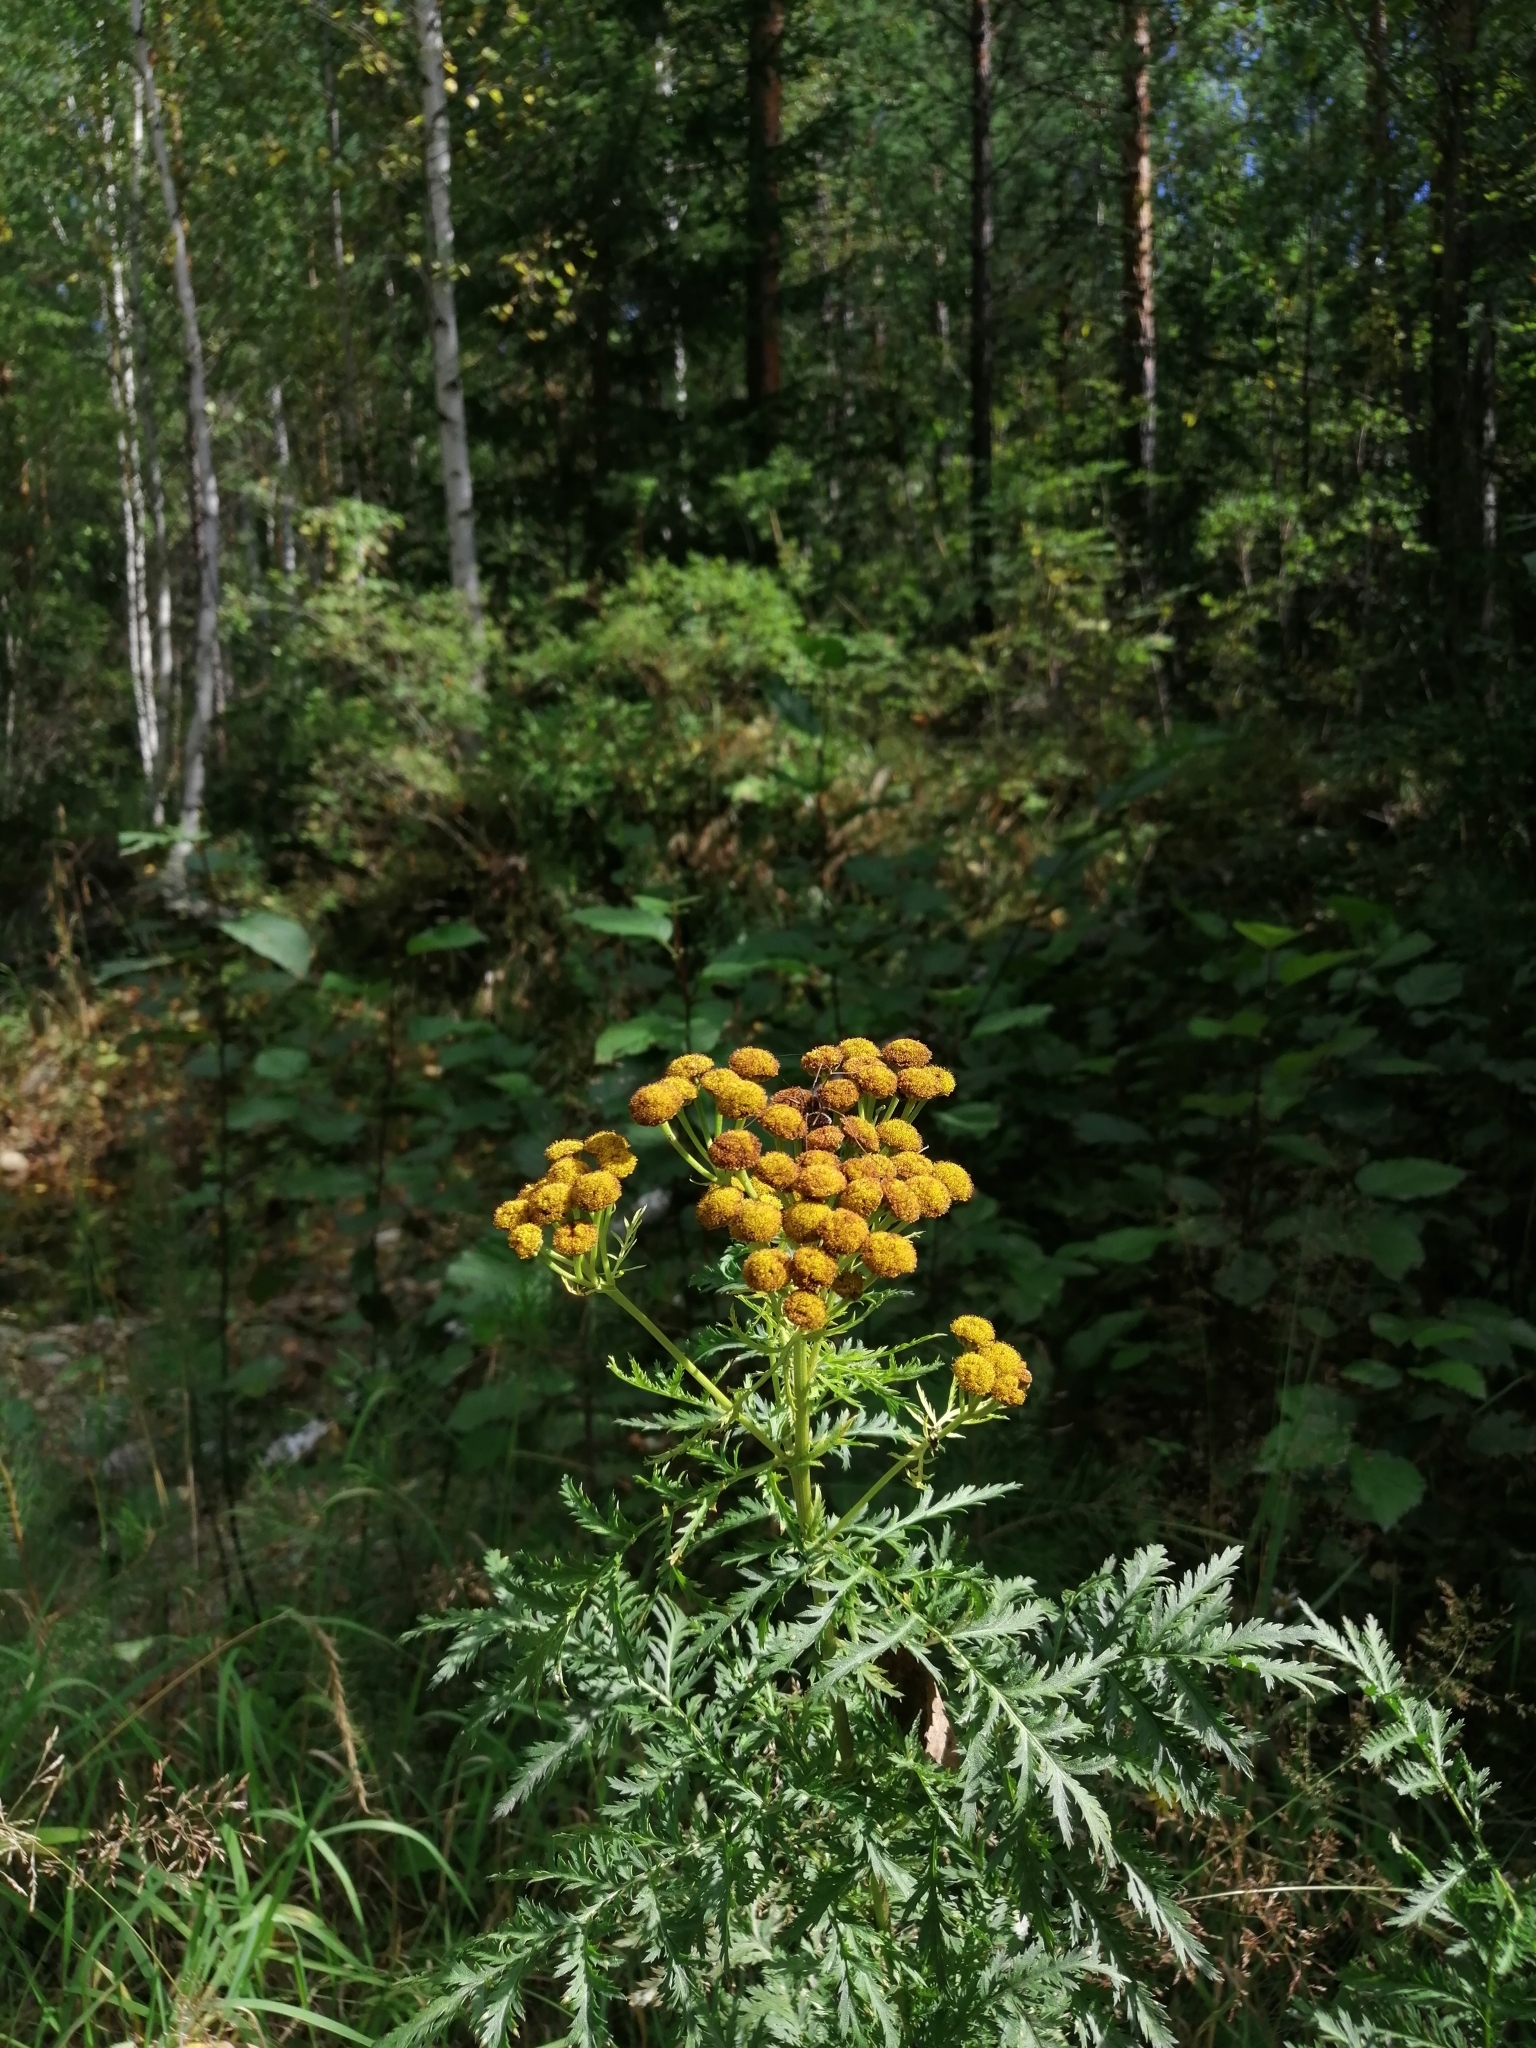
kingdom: Plantae
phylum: Tracheophyta
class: Magnoliopsida
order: Asterales
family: Asteraceae
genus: Tanacetum
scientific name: Tanacetum vulgare
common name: Common tansy
